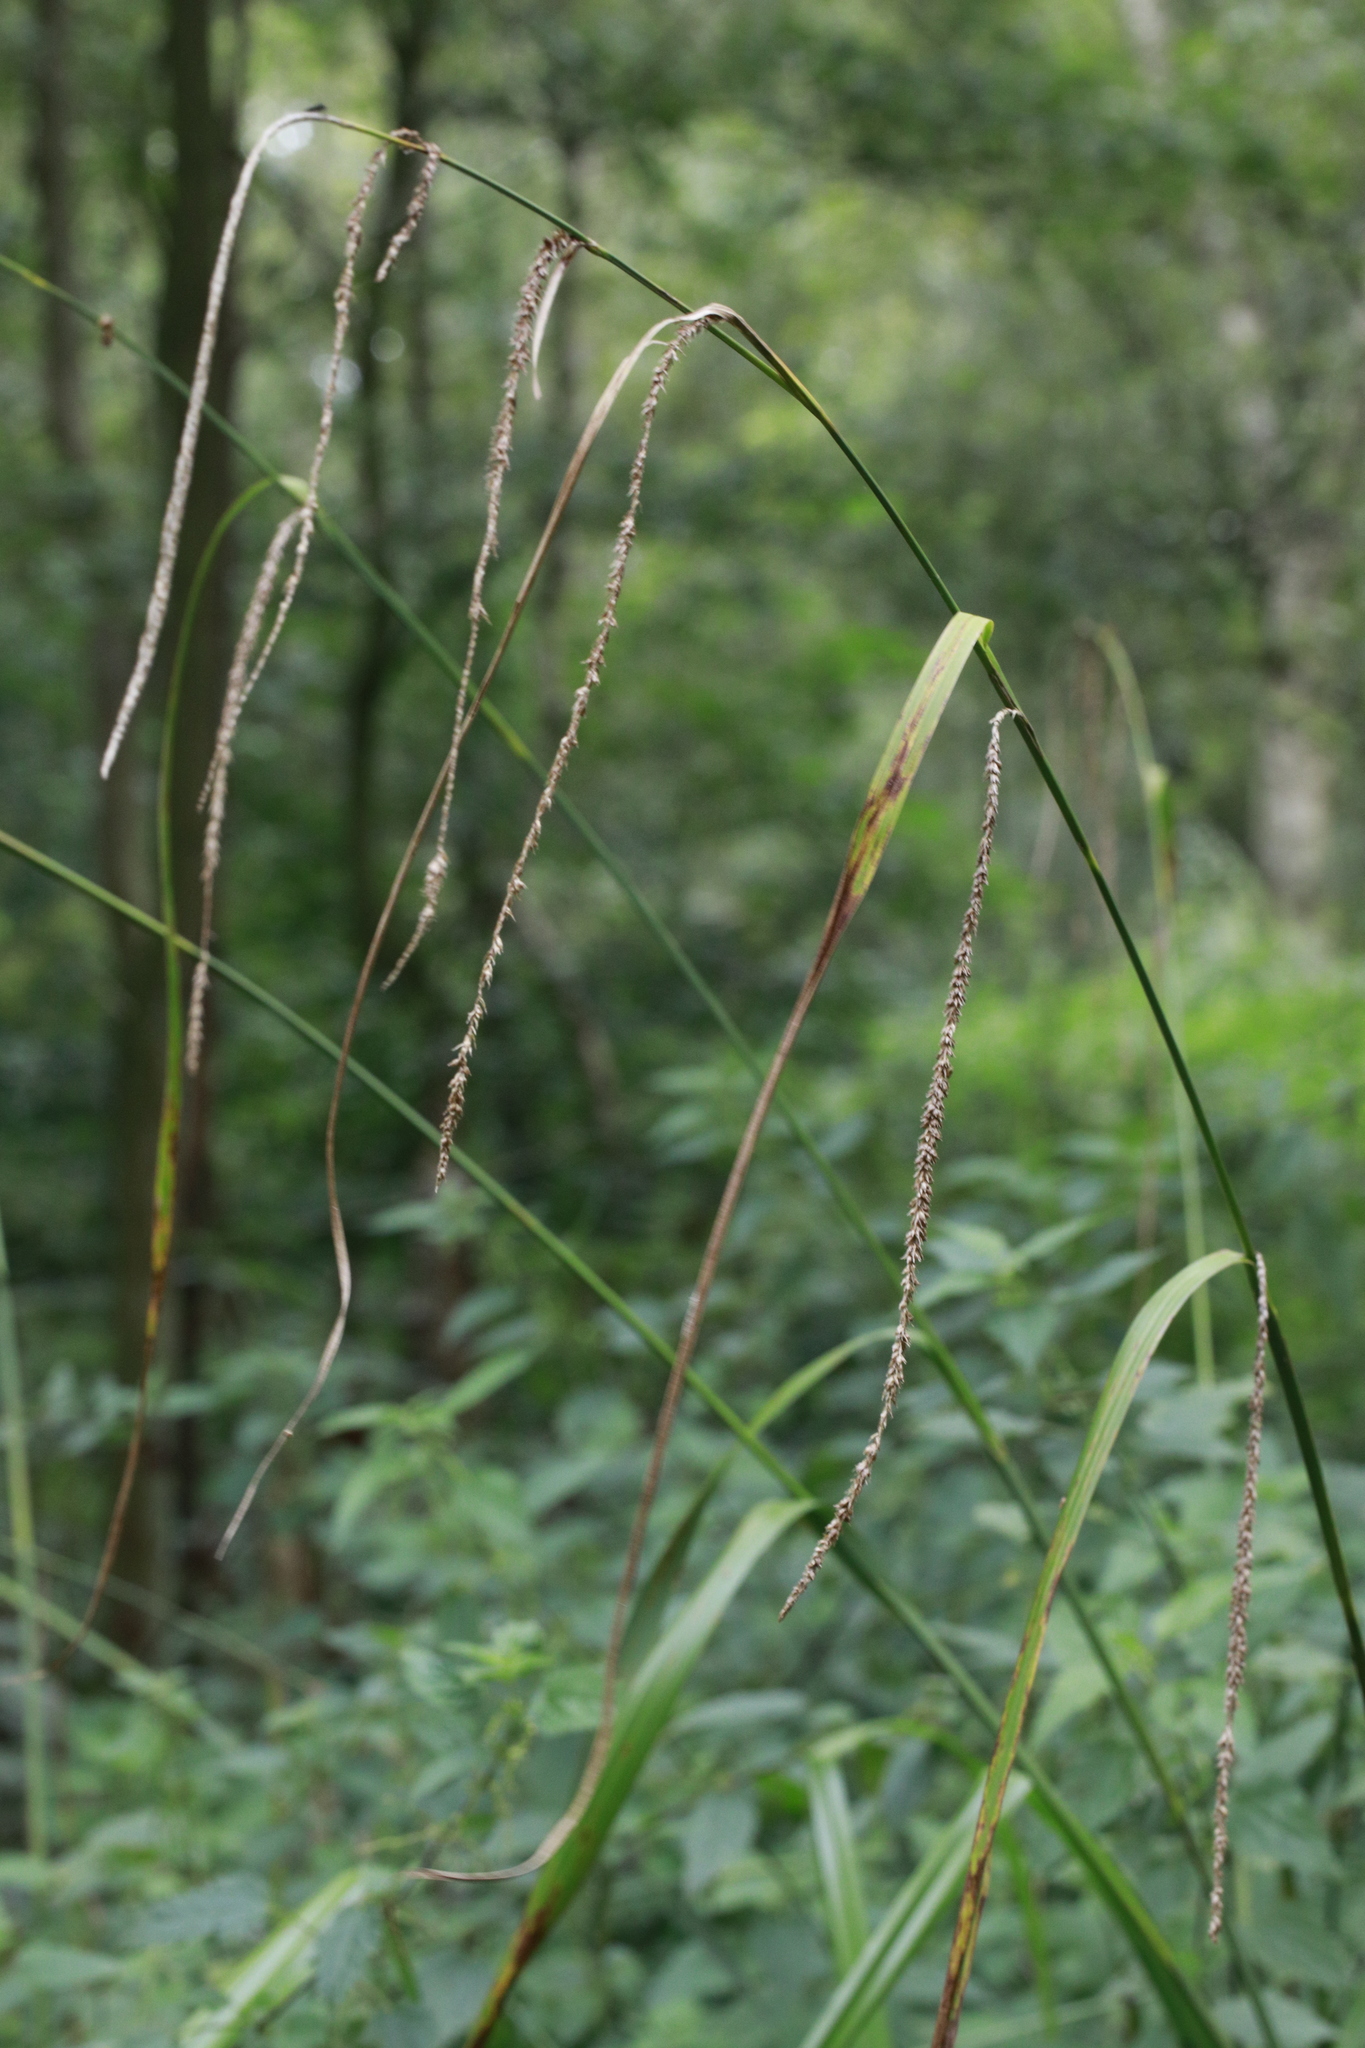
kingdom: Plantae
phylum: Tracheophyta
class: Liliopsida
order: Poales
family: Cyperaceae
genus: Carex
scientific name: Carex pendula
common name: Pendulous sedge
